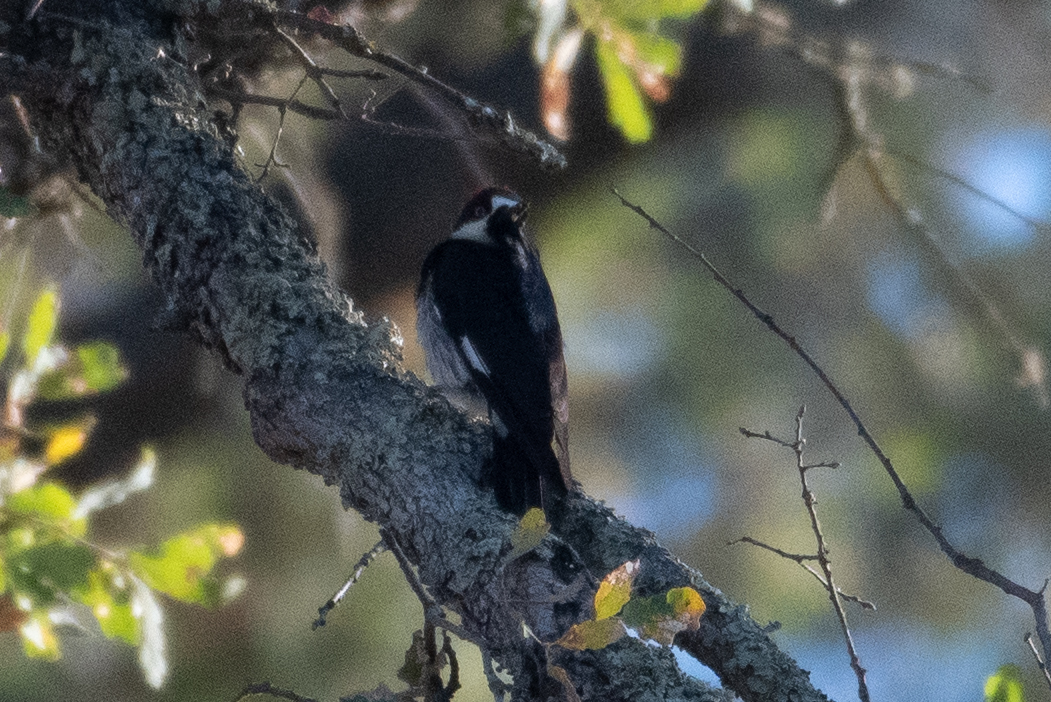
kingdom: Animalia
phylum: Chordata
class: Aves
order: Piciformes
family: Picidae
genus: Melanerpes
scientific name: Melanerpes formicivorus
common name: Acorn woodpecker
